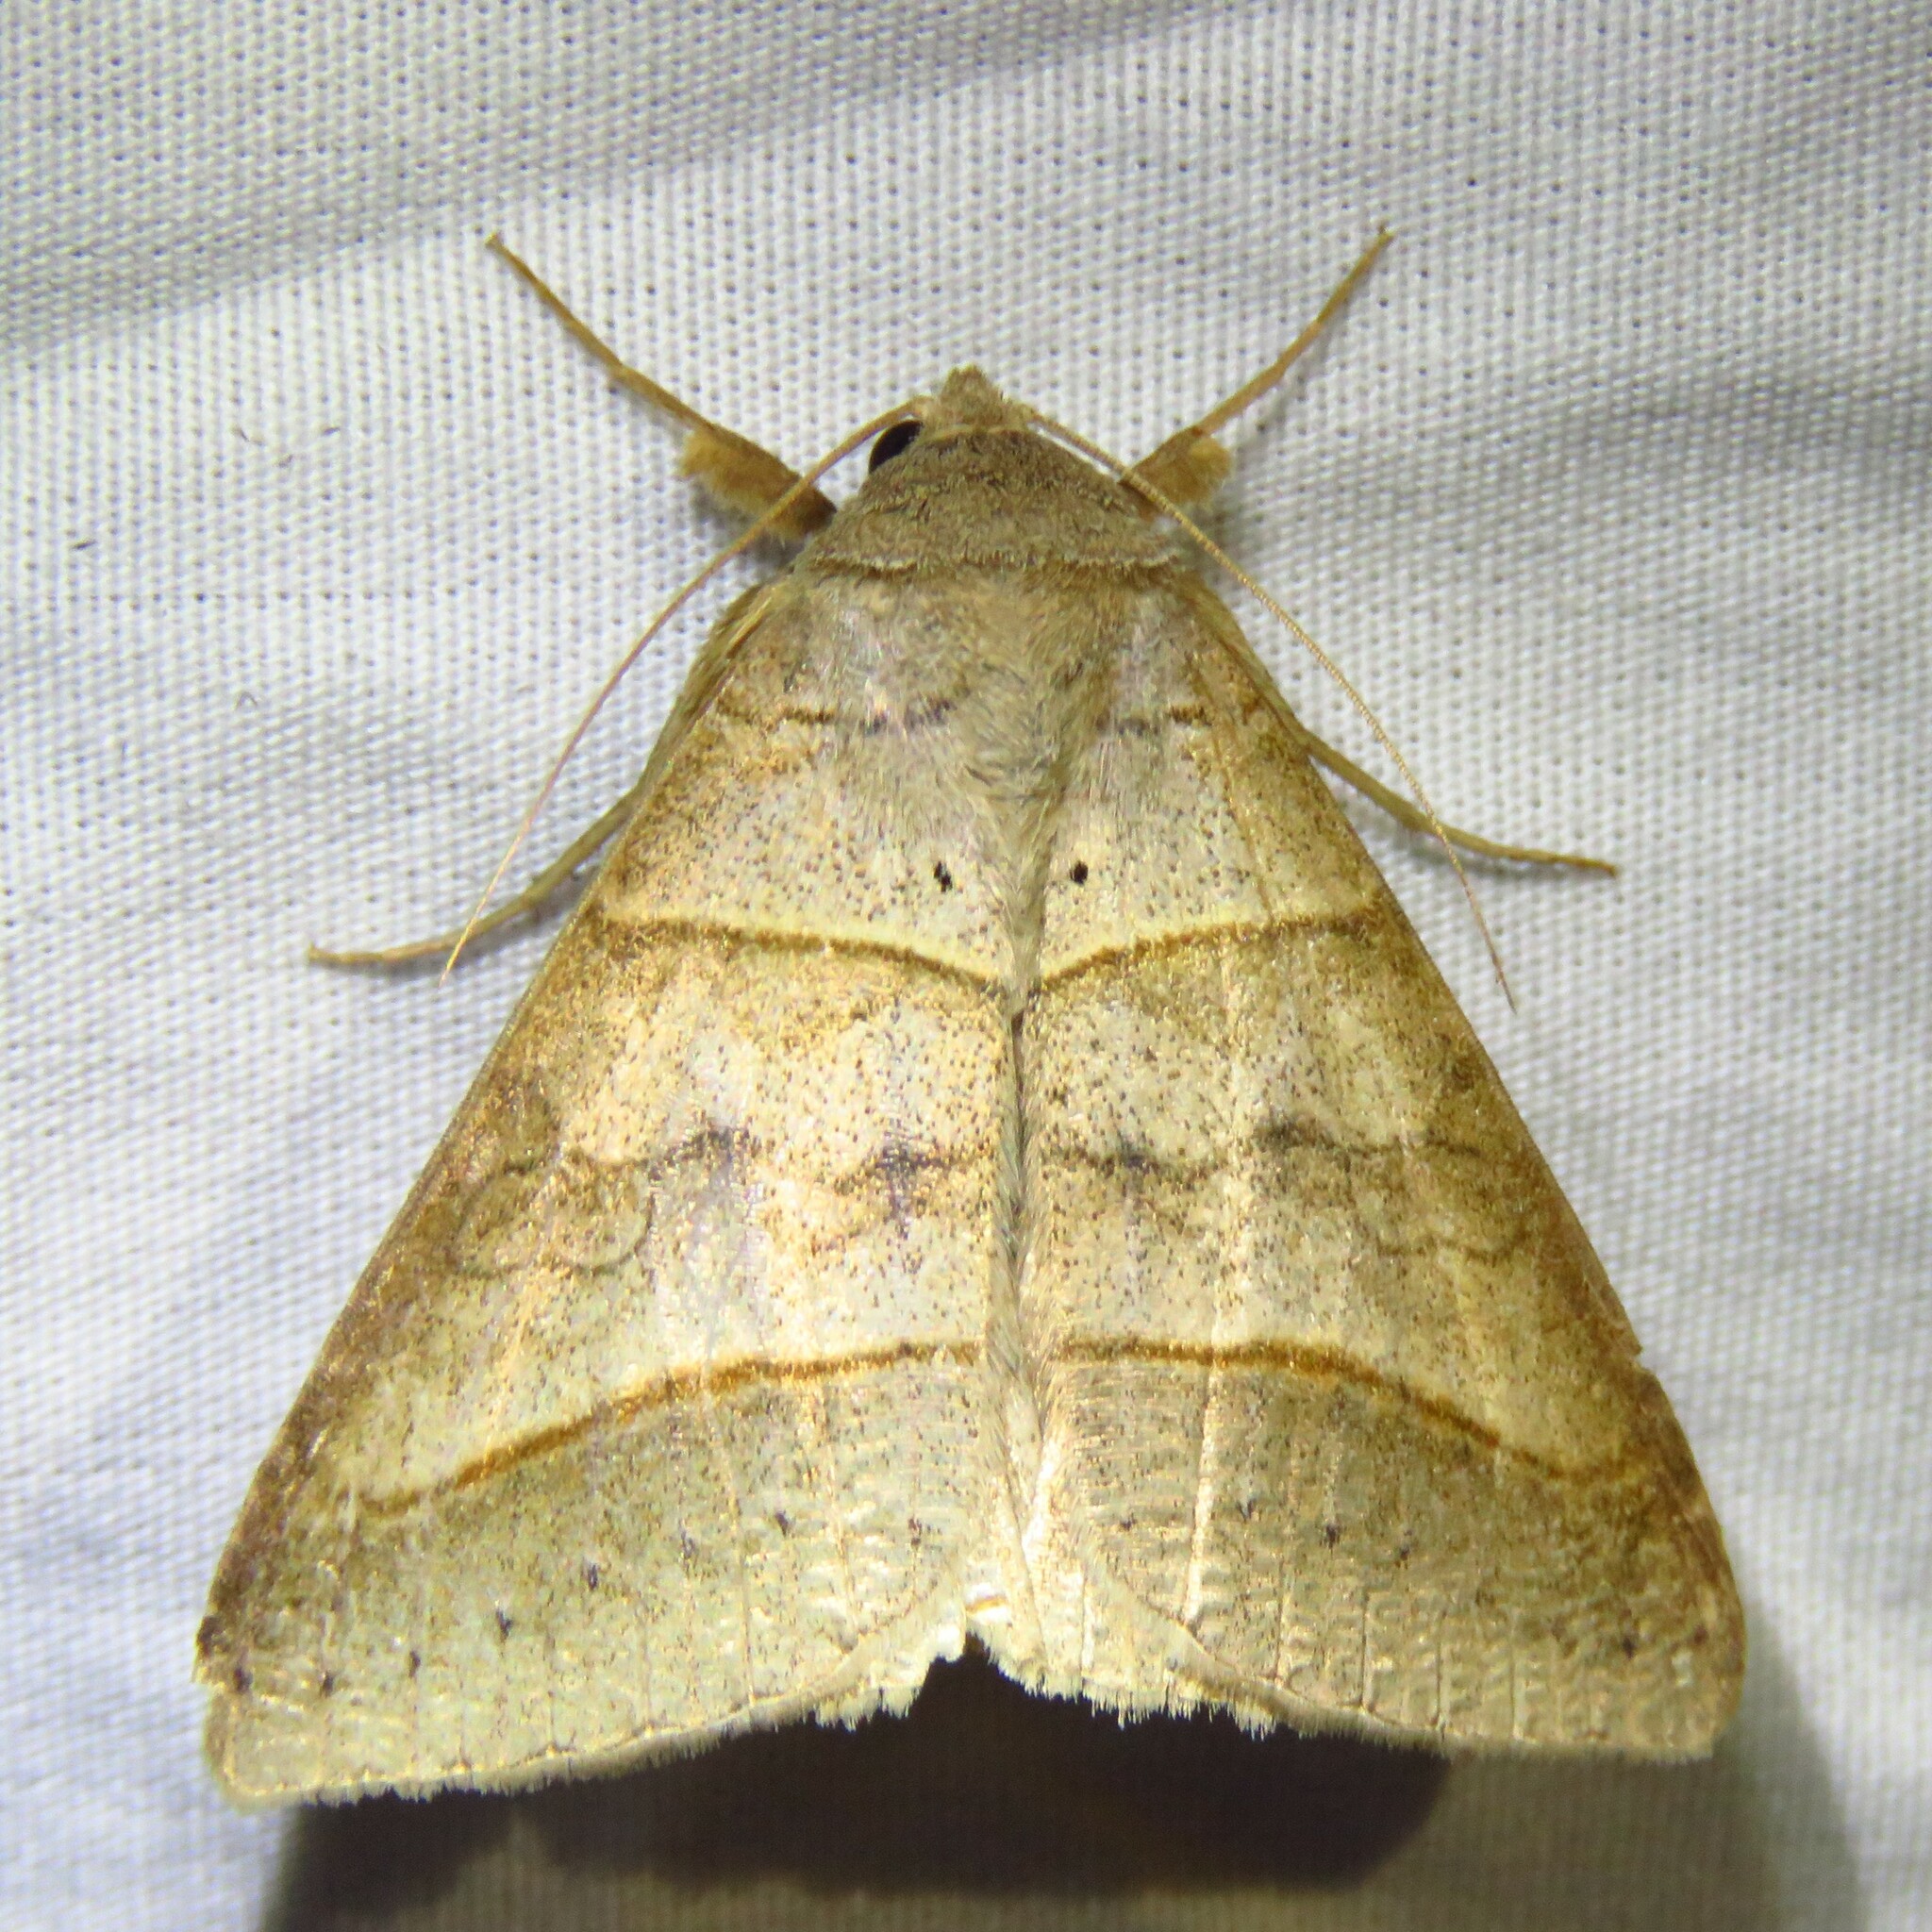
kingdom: Animalia
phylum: Arthropoda
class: Insecta
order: Lepidoptera
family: Erebidae
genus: Mocis
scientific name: Mocis texana
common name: Texas mocis moth
